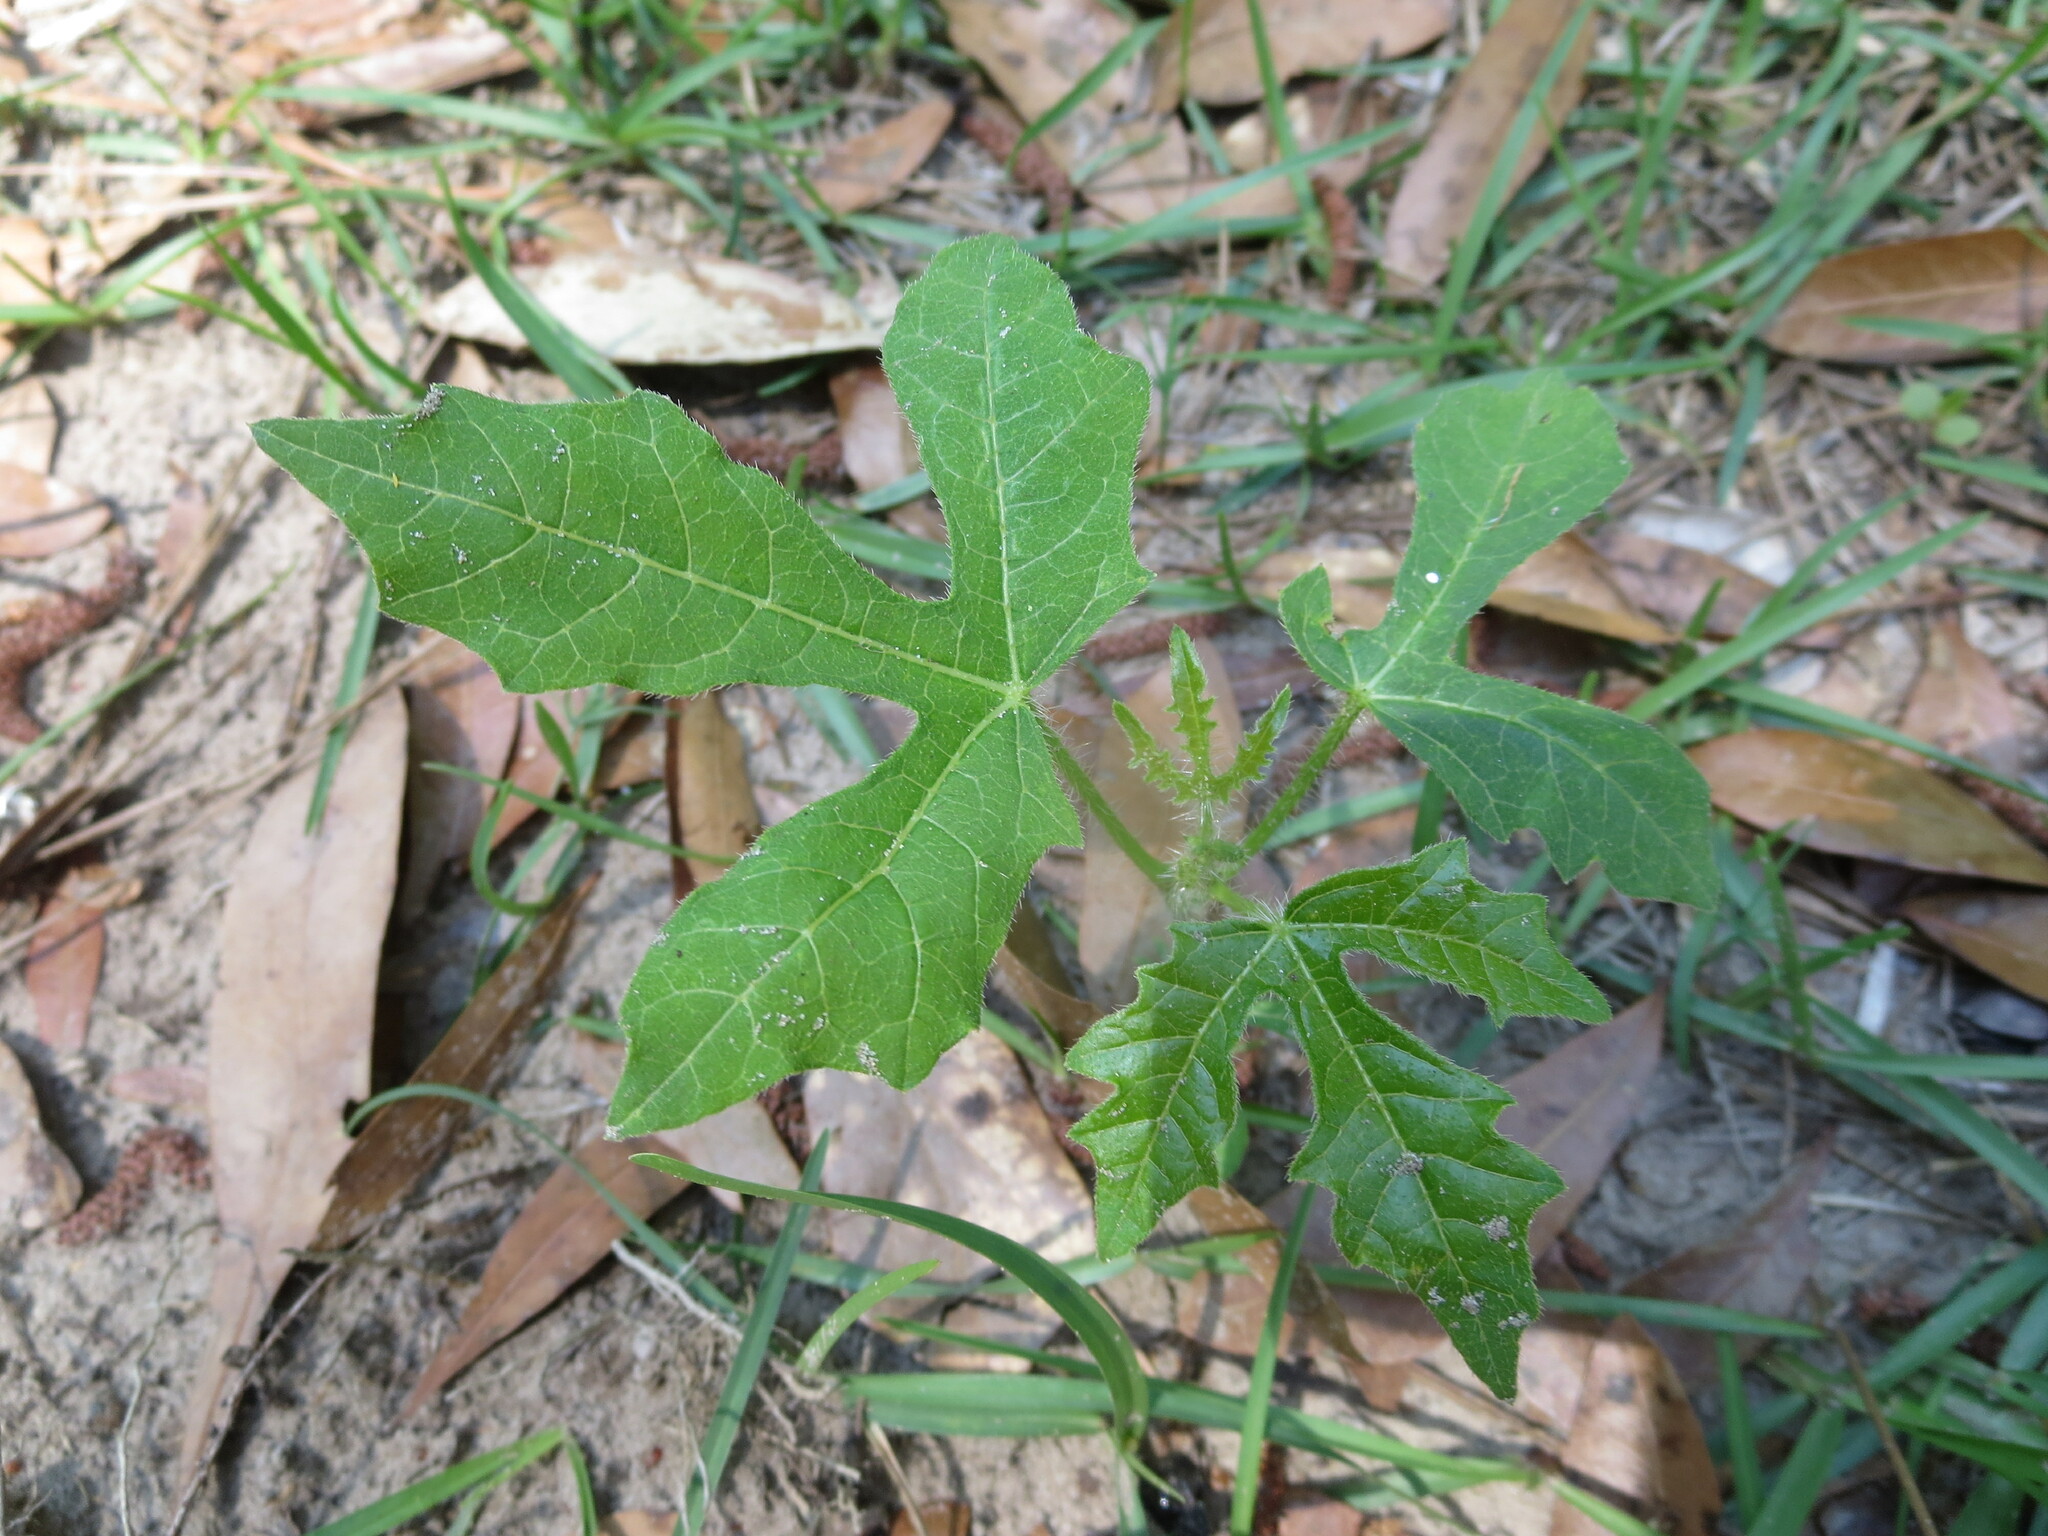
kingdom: Plantae
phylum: Tracheophyta
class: Magnoliopsida
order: Malpighiales
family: Euphorbiaceae
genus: Cnidoscolus
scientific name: Cnidoscolus stimulosus
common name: Bull-nettle
